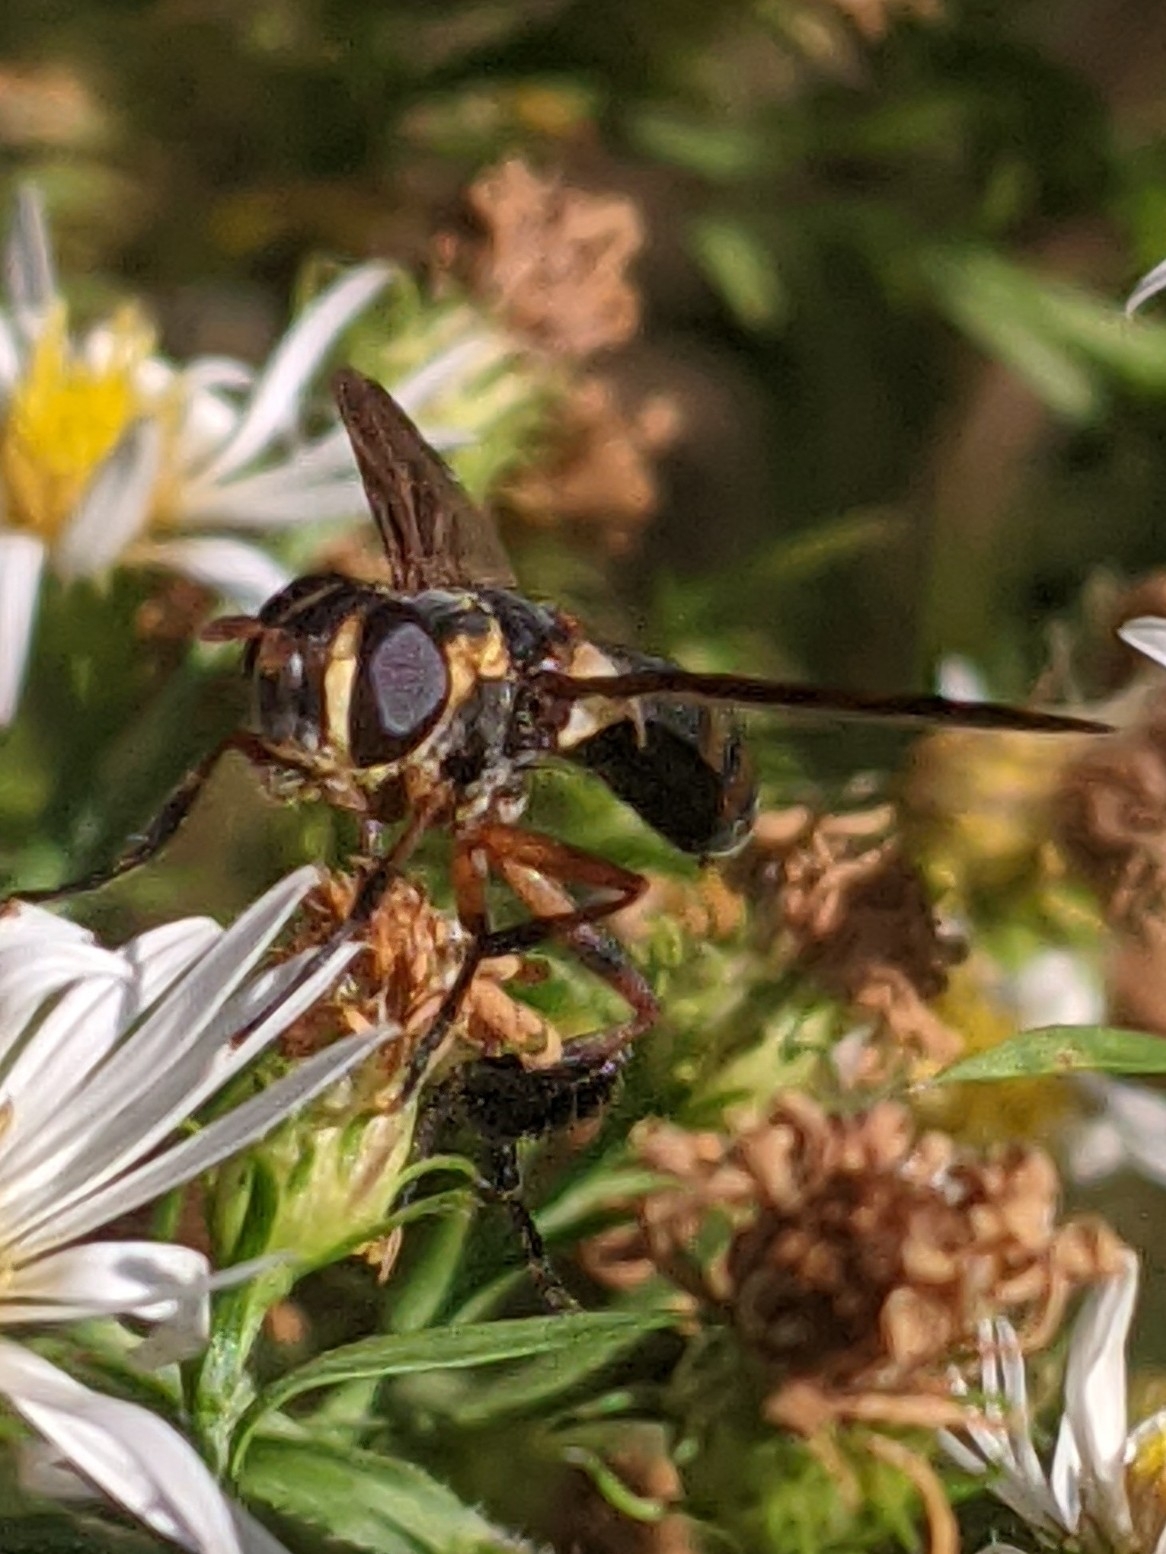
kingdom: Animalia
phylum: Arthropoda
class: Insecta
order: Diptera
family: Tachinidae
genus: Trichopoda
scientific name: Trichopoda plumipes
